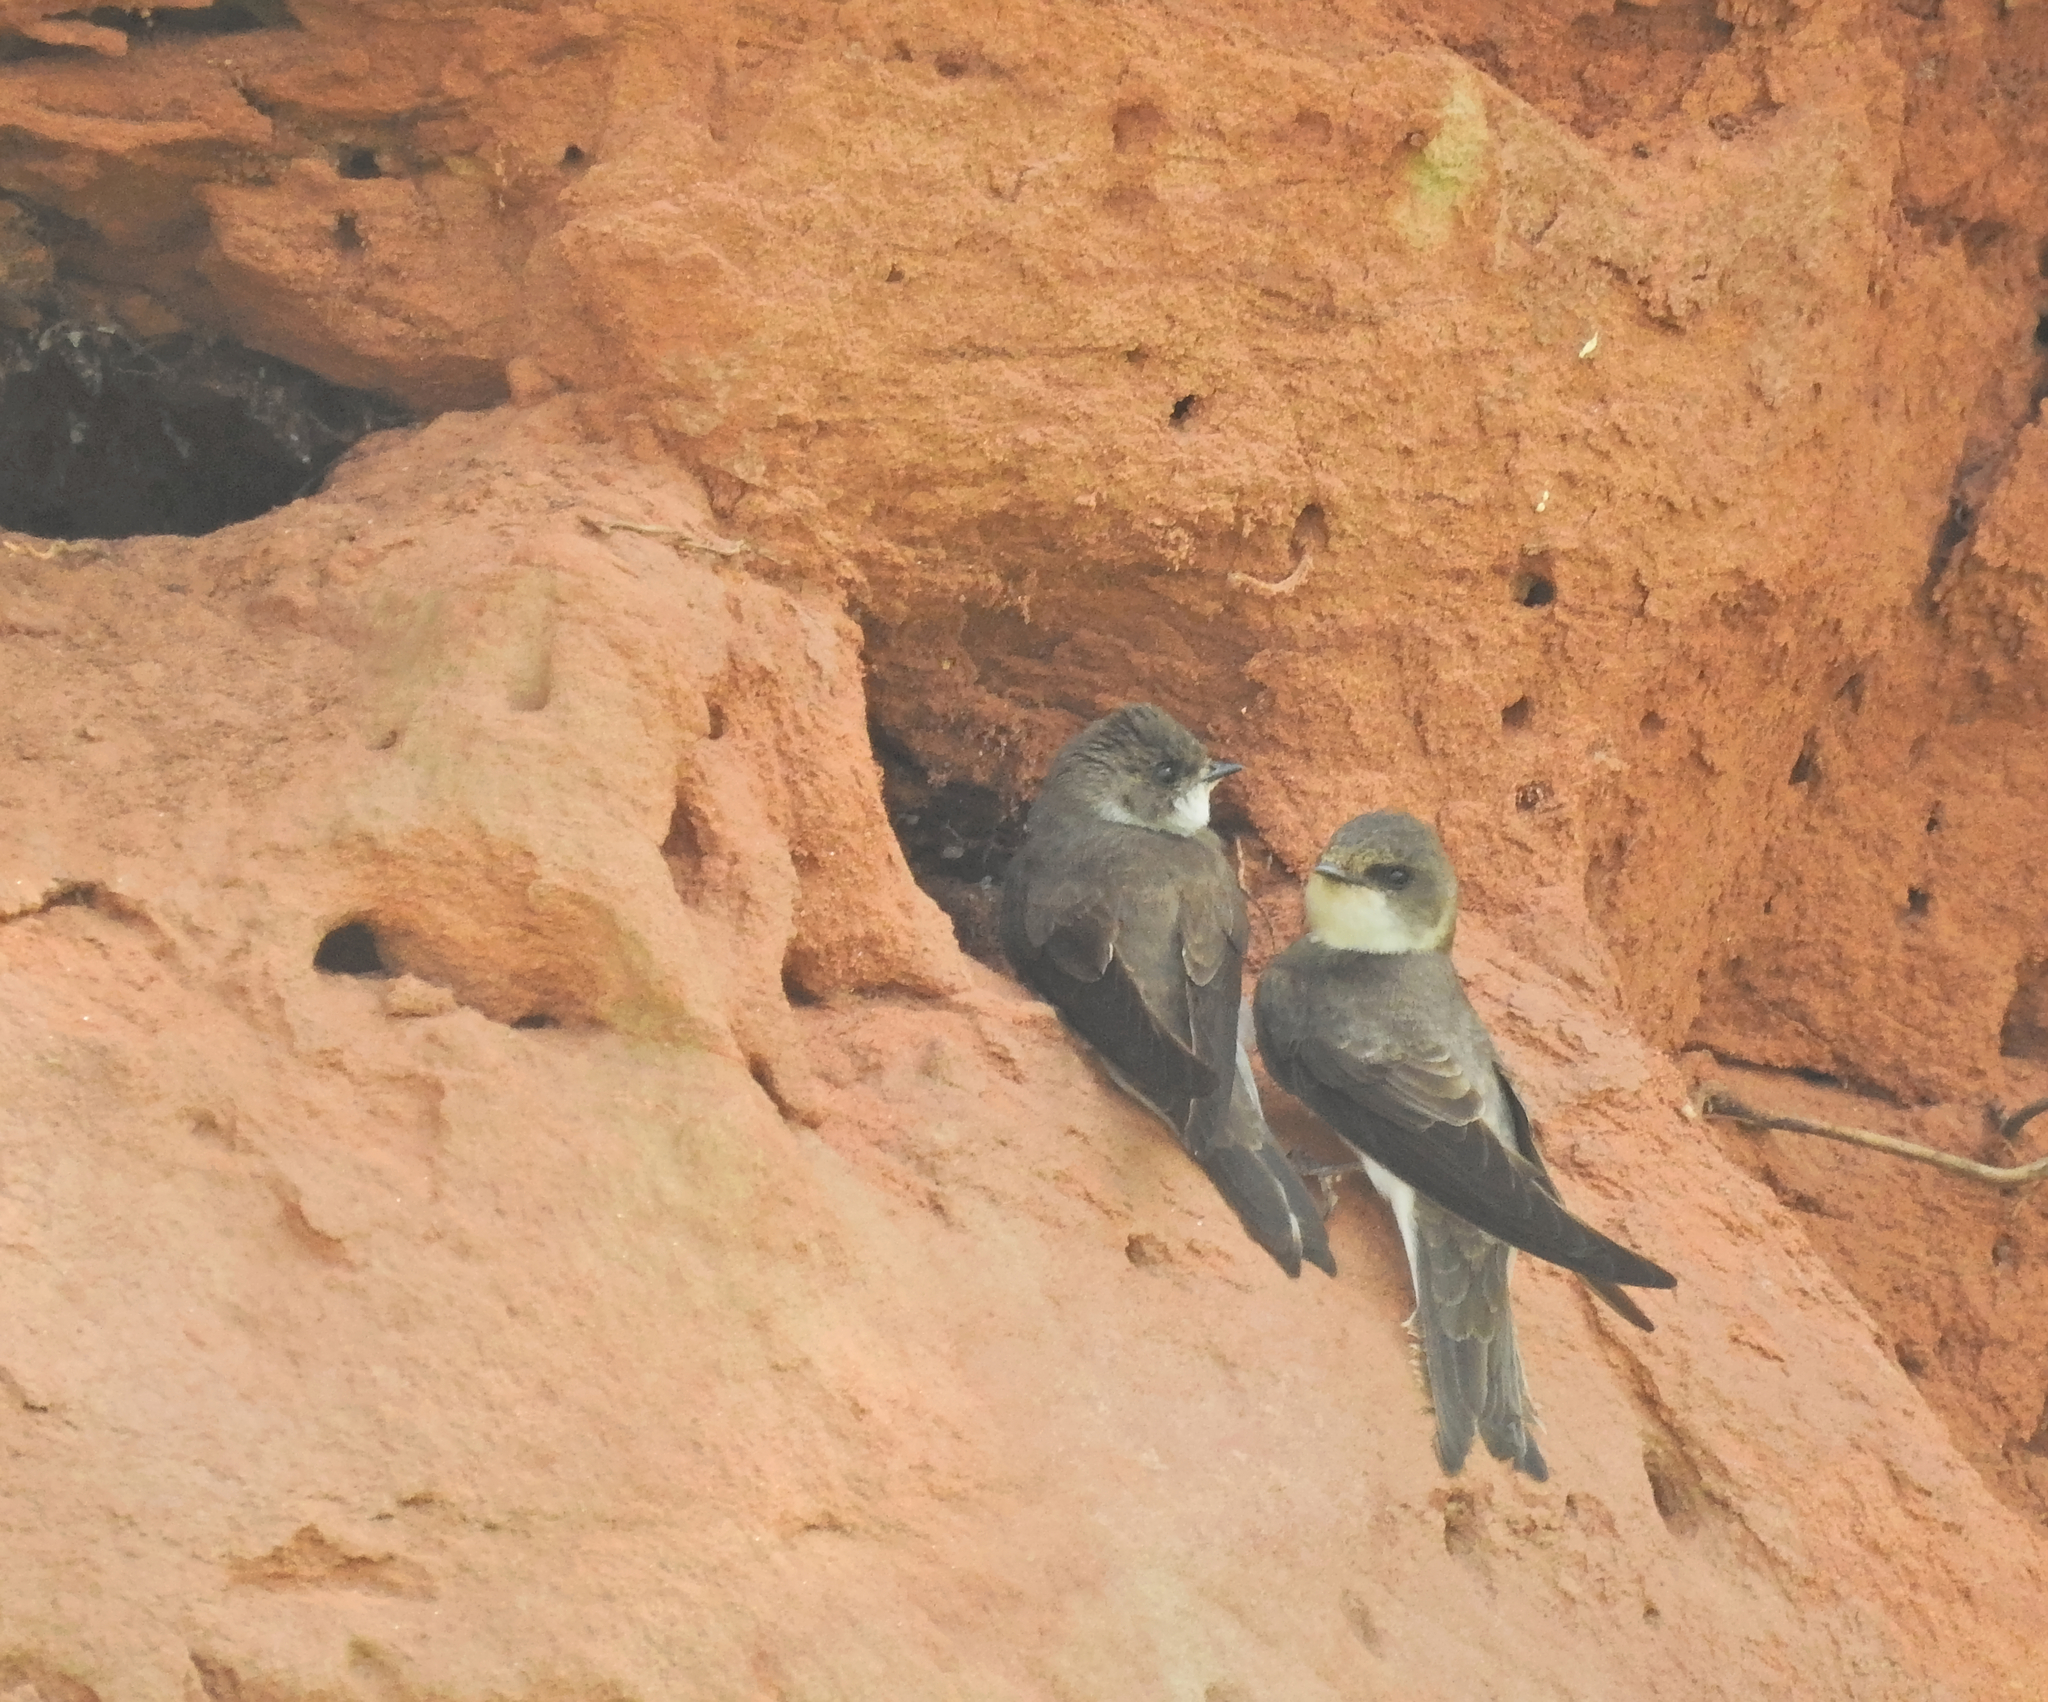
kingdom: Animalia
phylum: Chordata
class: Aves
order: Passeriformes
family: Hirundinidae
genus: Riparia
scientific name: Riparia riparia
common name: Sand martin
